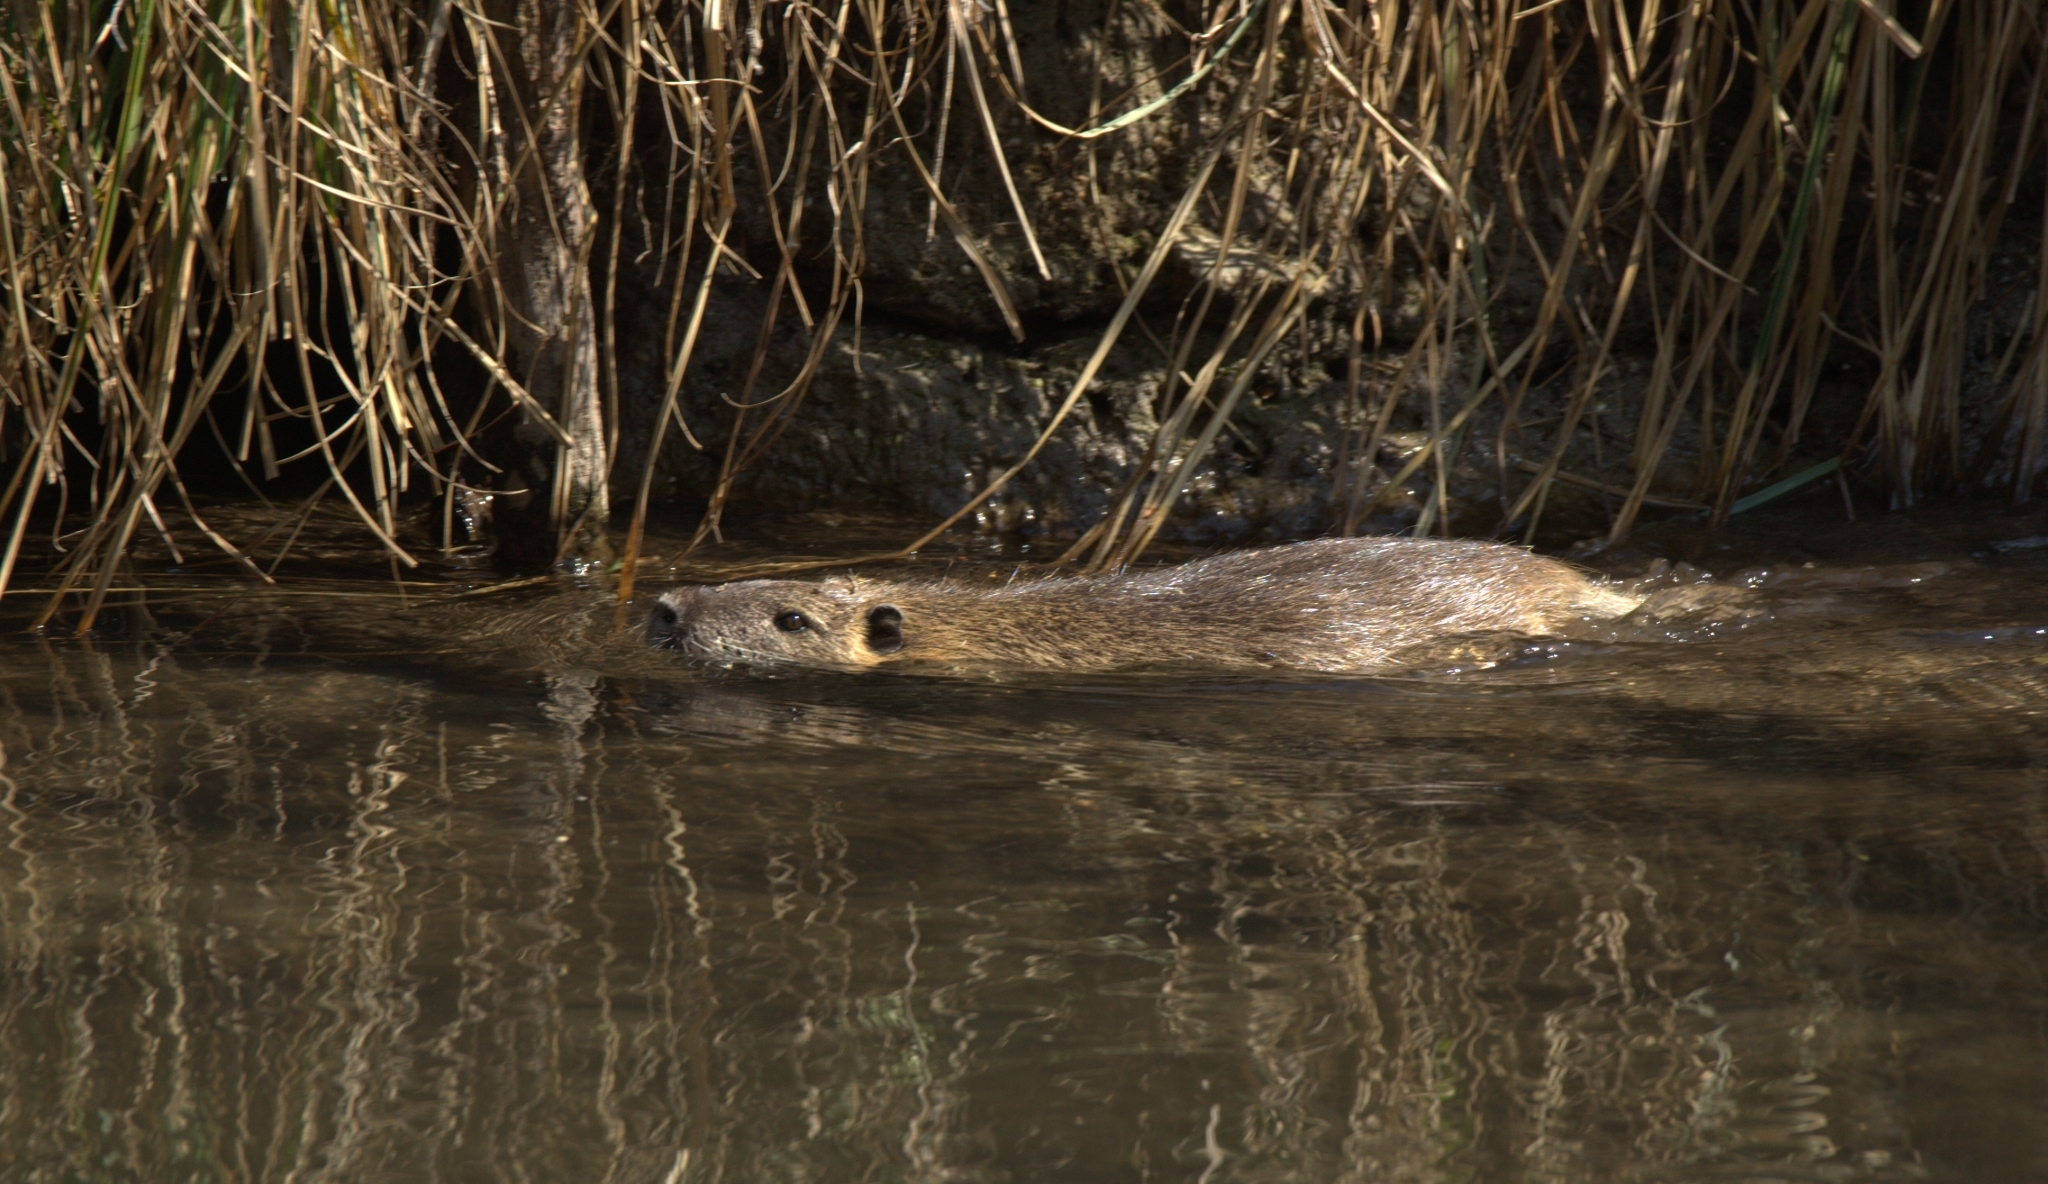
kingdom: Animalia
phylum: Chordata
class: Mammalia
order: Rodentia
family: Myocastoridae
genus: Myocastor
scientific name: Myocastor coypus
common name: Coypu
